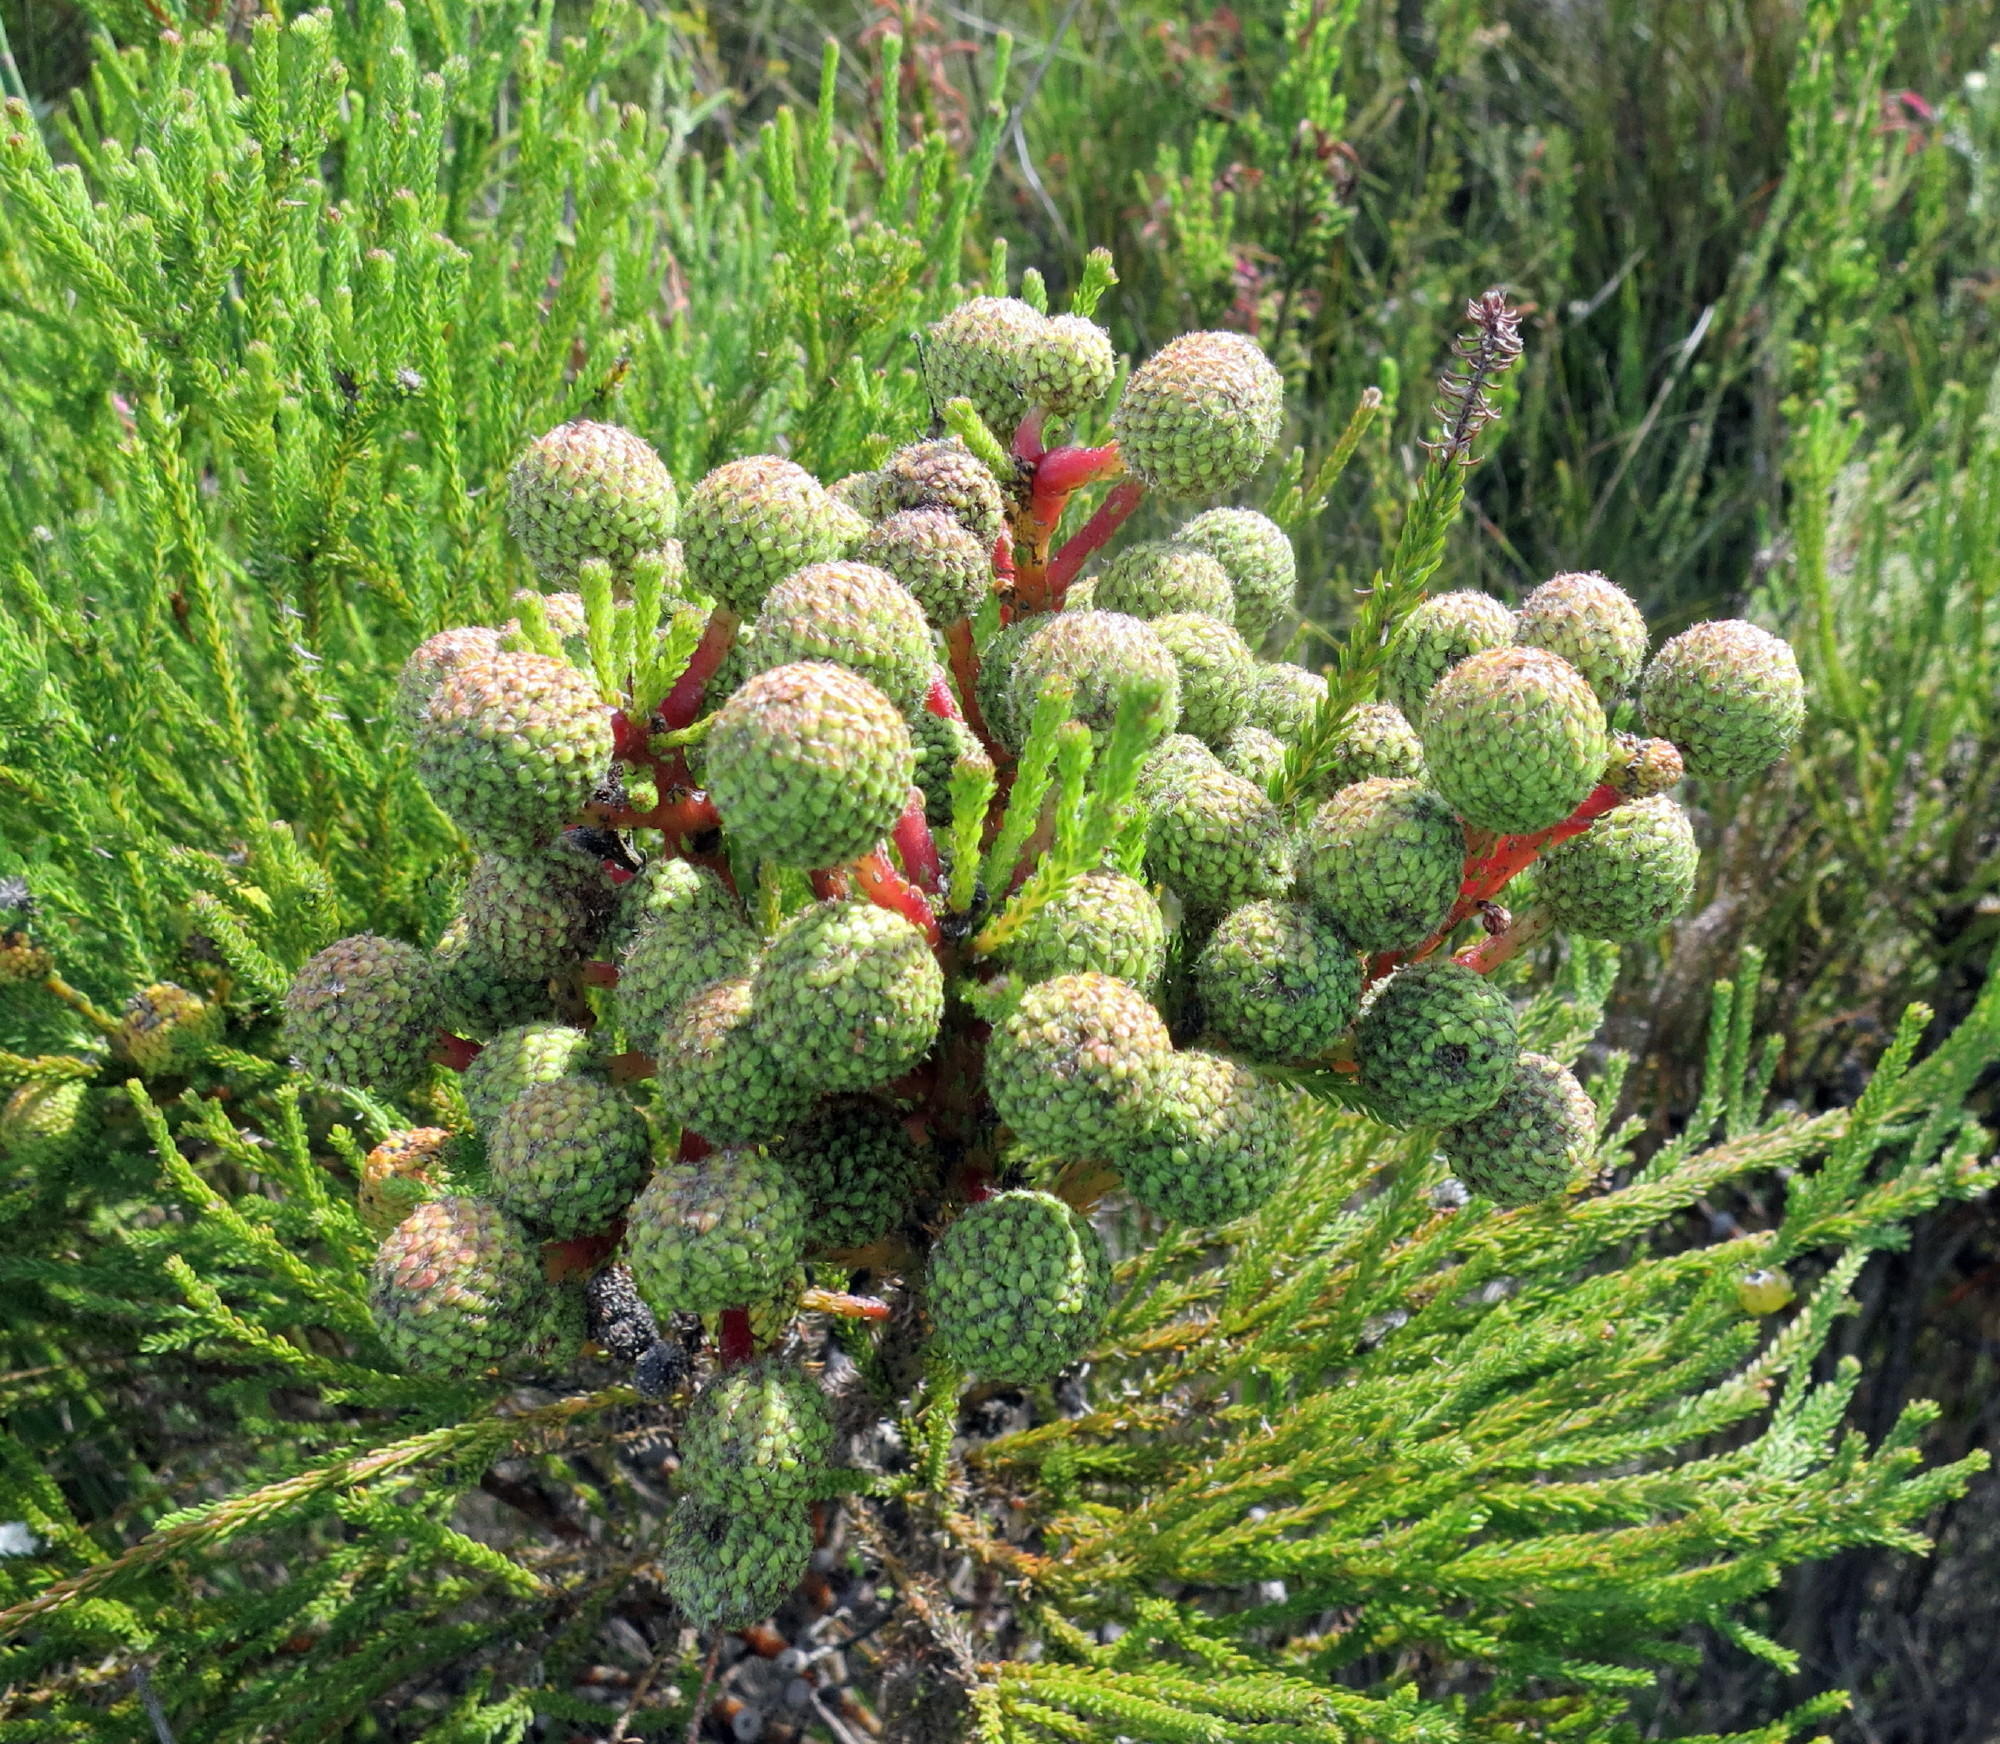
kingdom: Plantae
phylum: Tracheophyta
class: Magnoliopsida
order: Bruniales
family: Bruniaceae
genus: Berzelia
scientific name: Berzelia intermedia
